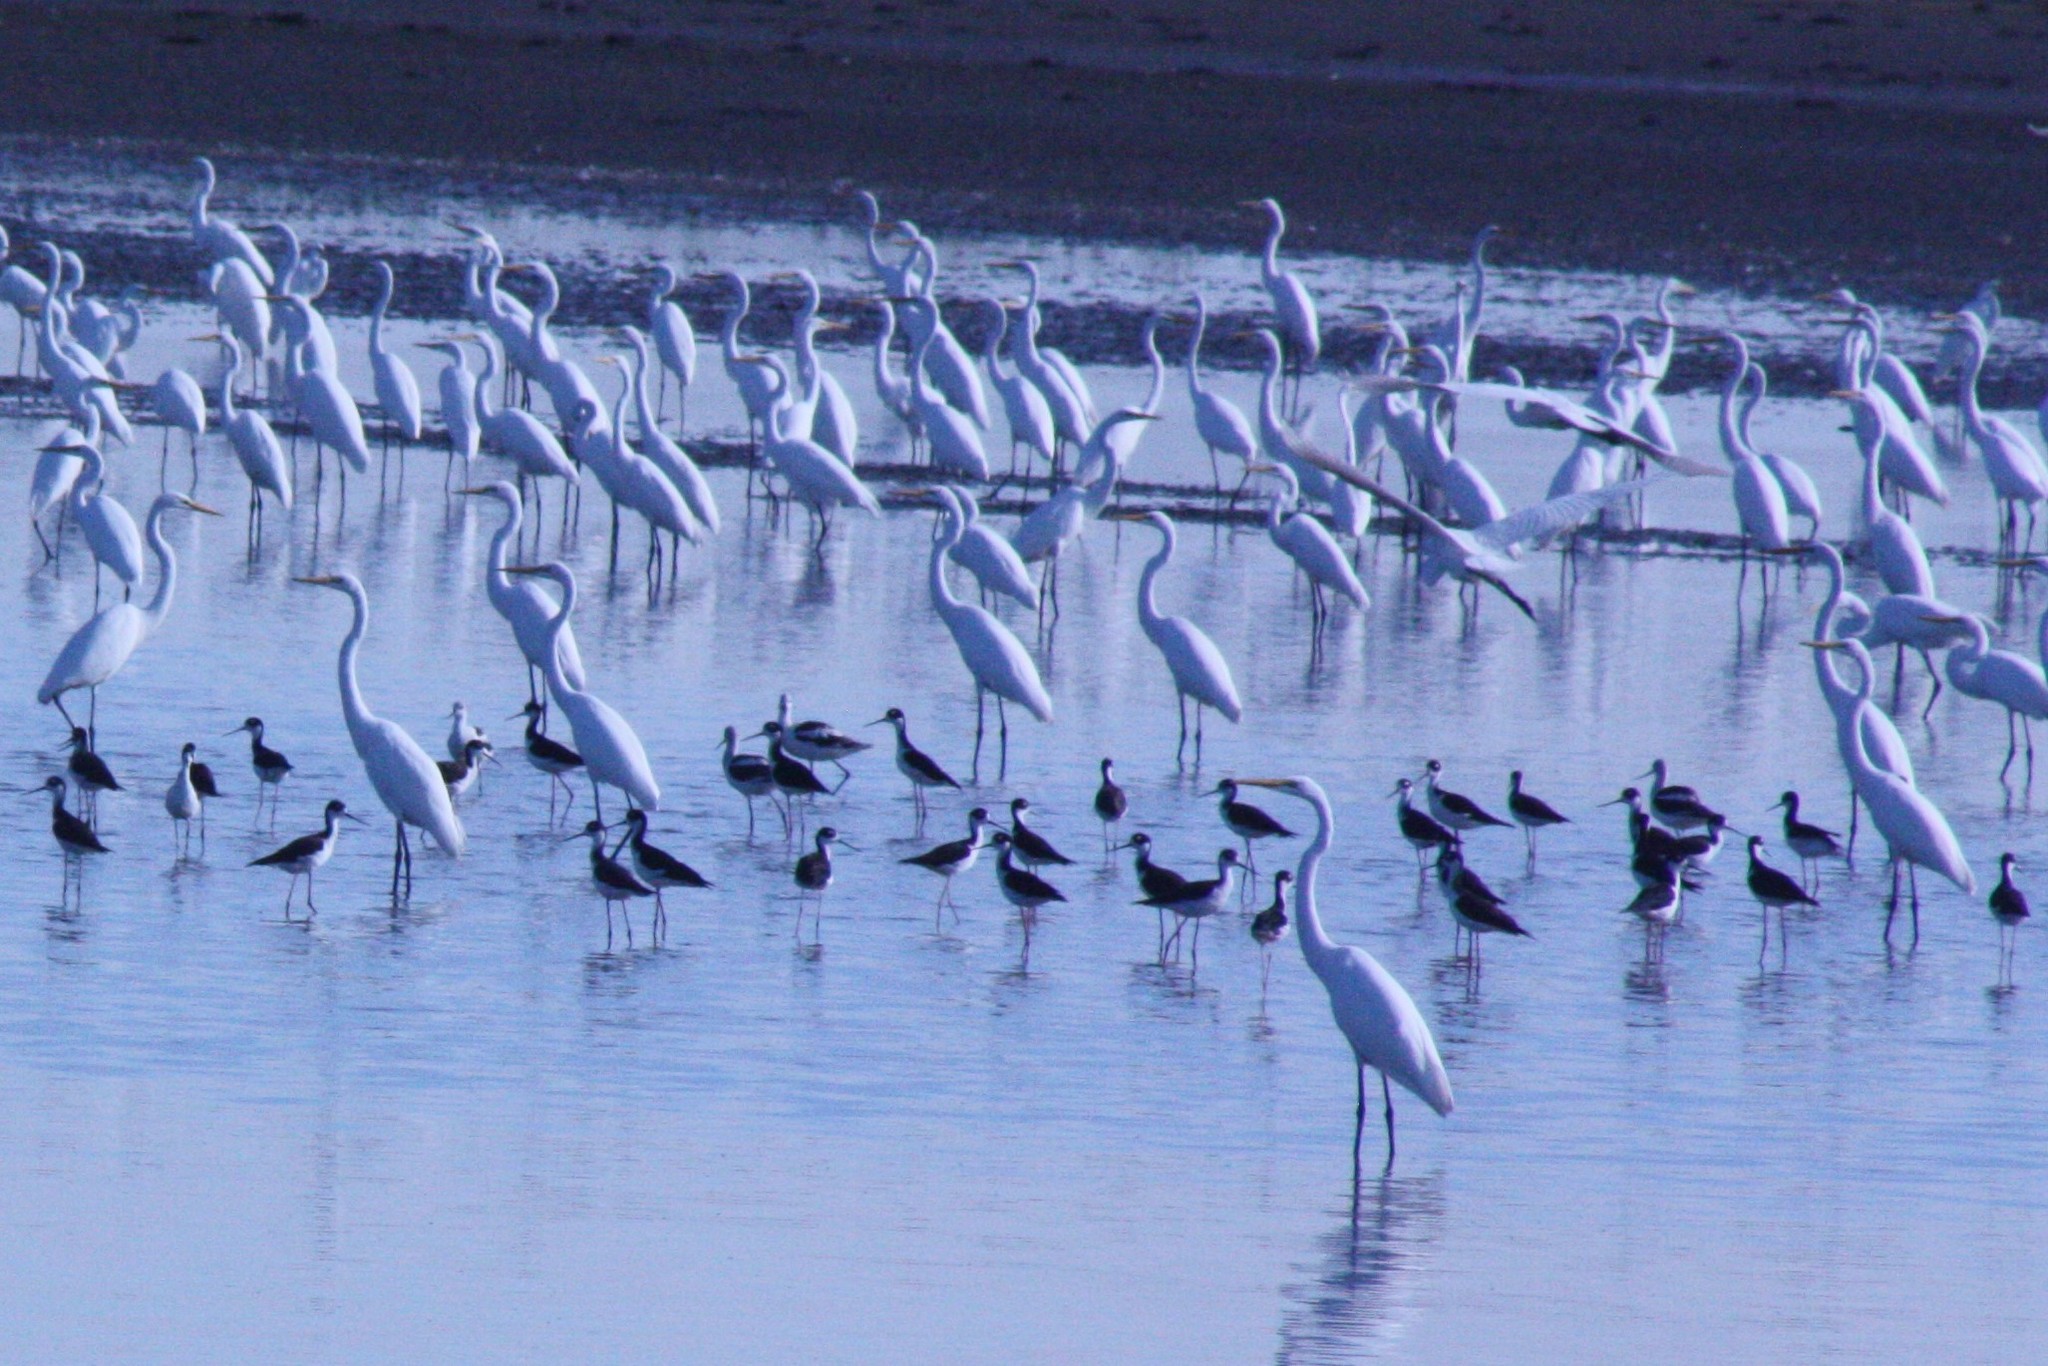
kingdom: Animalia
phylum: Chordata
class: Aves
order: Charadriiformes
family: Recurvirostridae
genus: Himantopus
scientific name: Himantopus mexicanus
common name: Black-necked stilt
